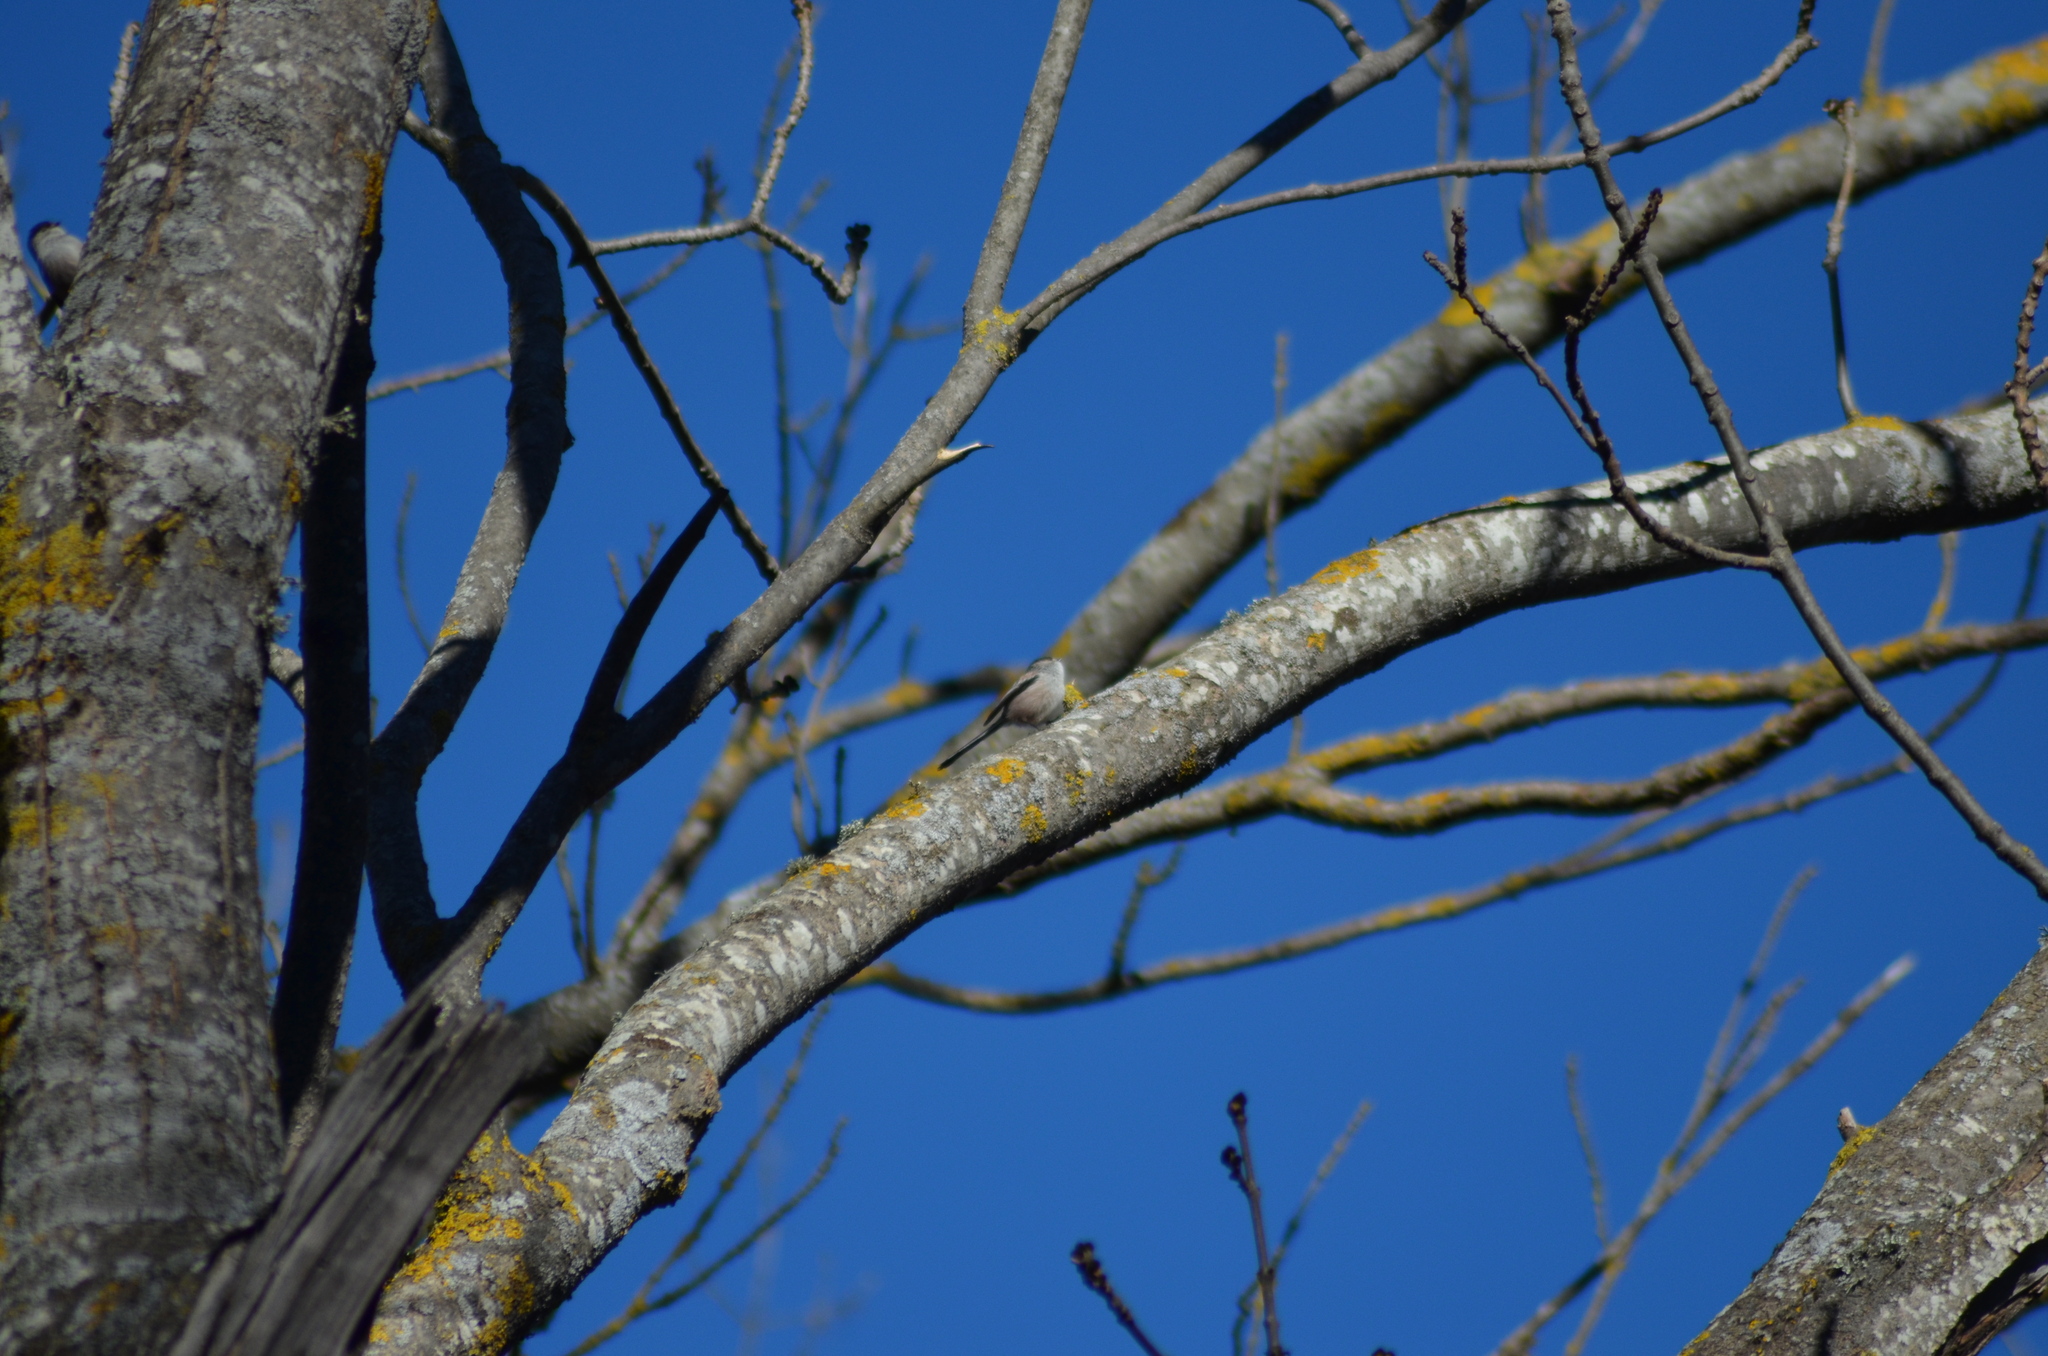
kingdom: Animalia
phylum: Chordata
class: Aves
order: Passeriformes
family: Aegithalidae
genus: Aegithalos
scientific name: Aegithalos caudatus
